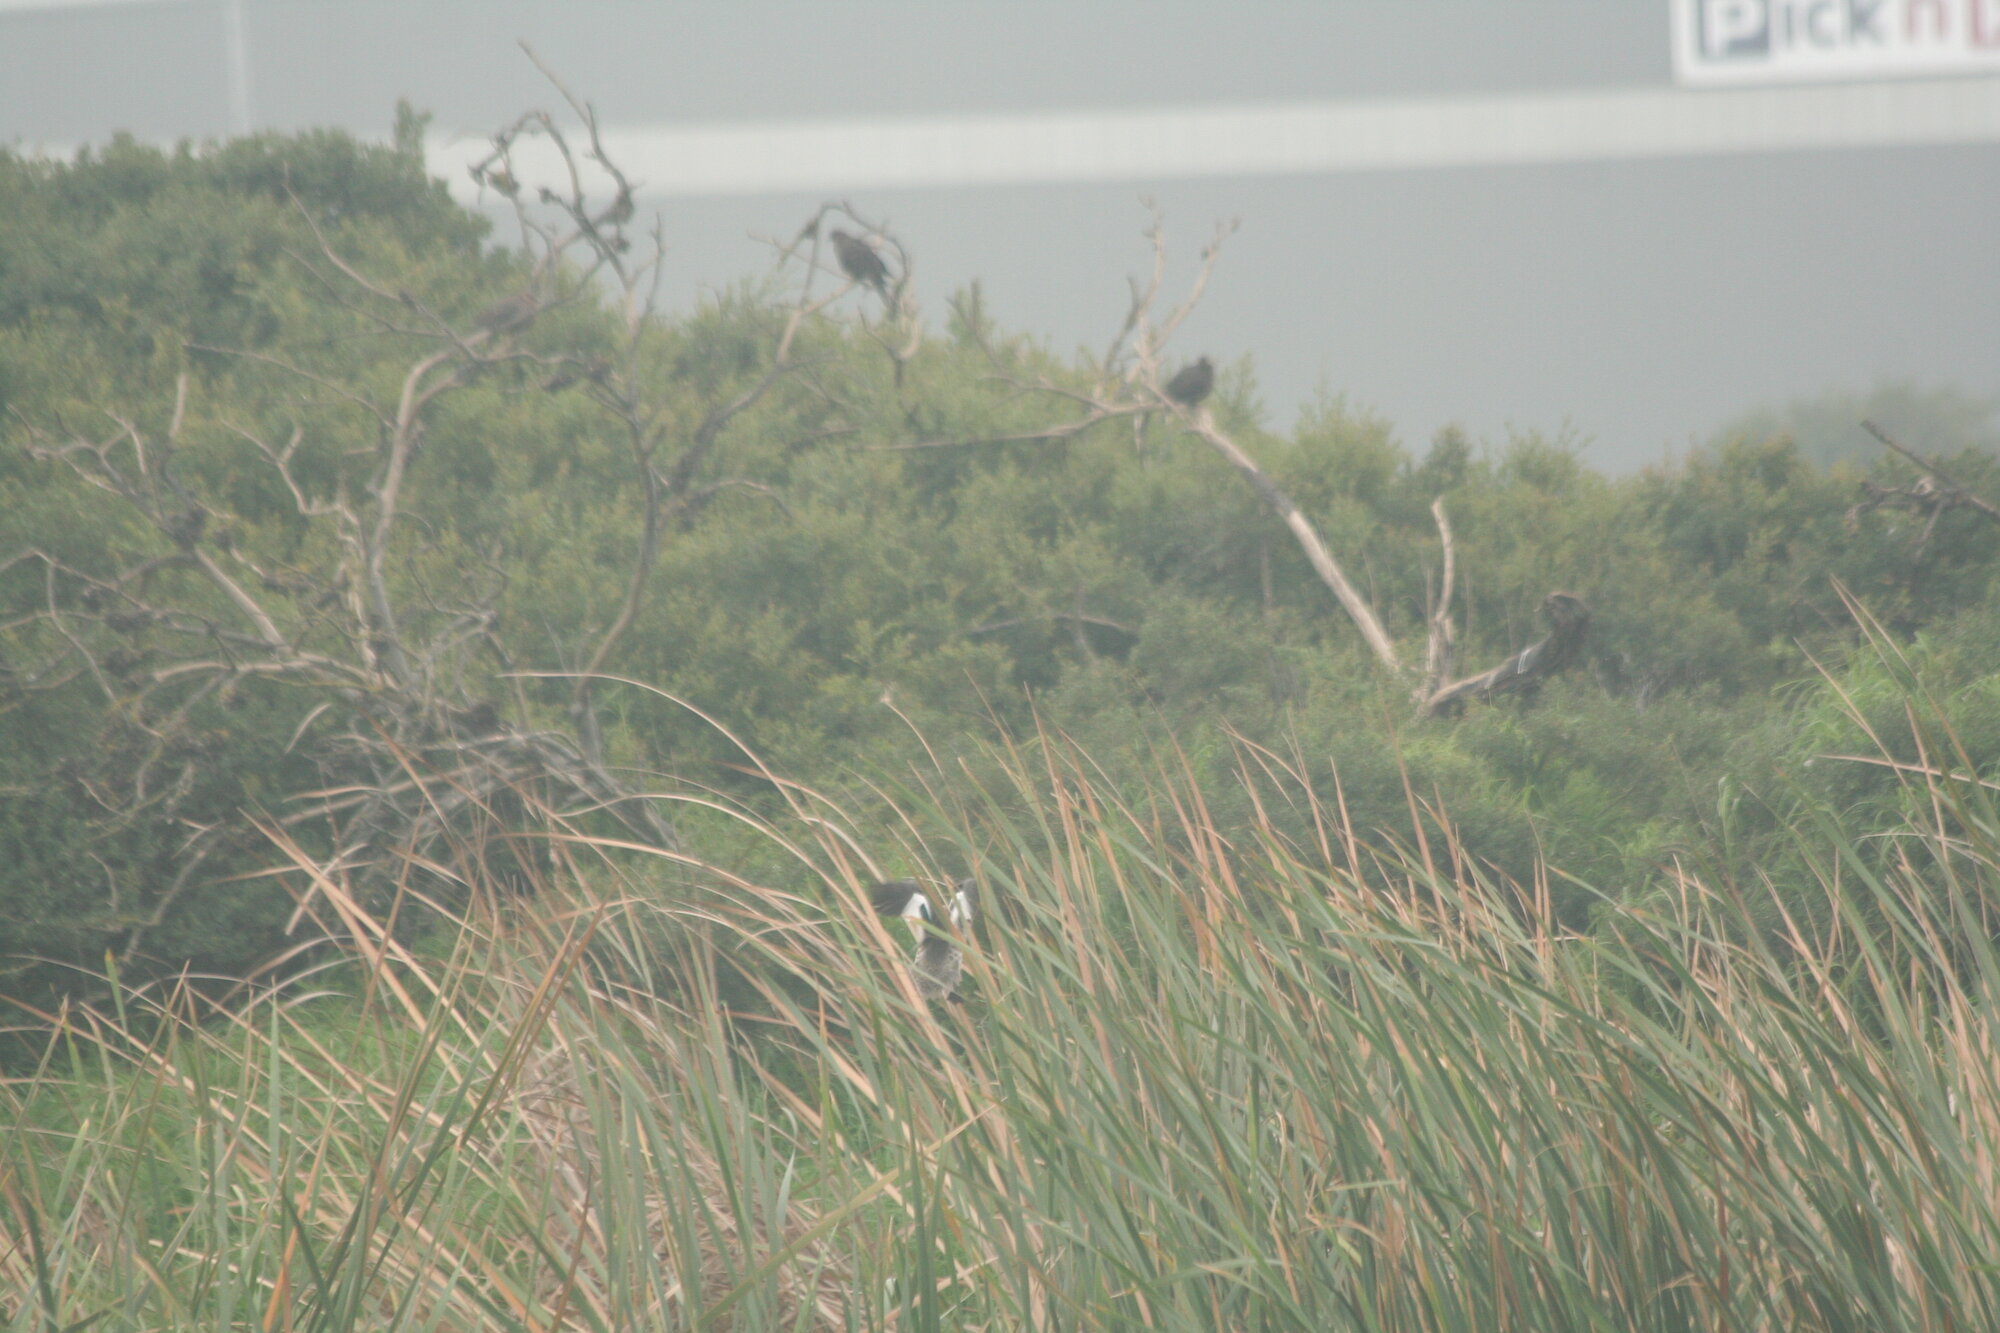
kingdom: Animalia
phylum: Chordata
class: Aves
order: Anseriformes
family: Anatidae
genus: Anas
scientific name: Anas capensis
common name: Cape teal
